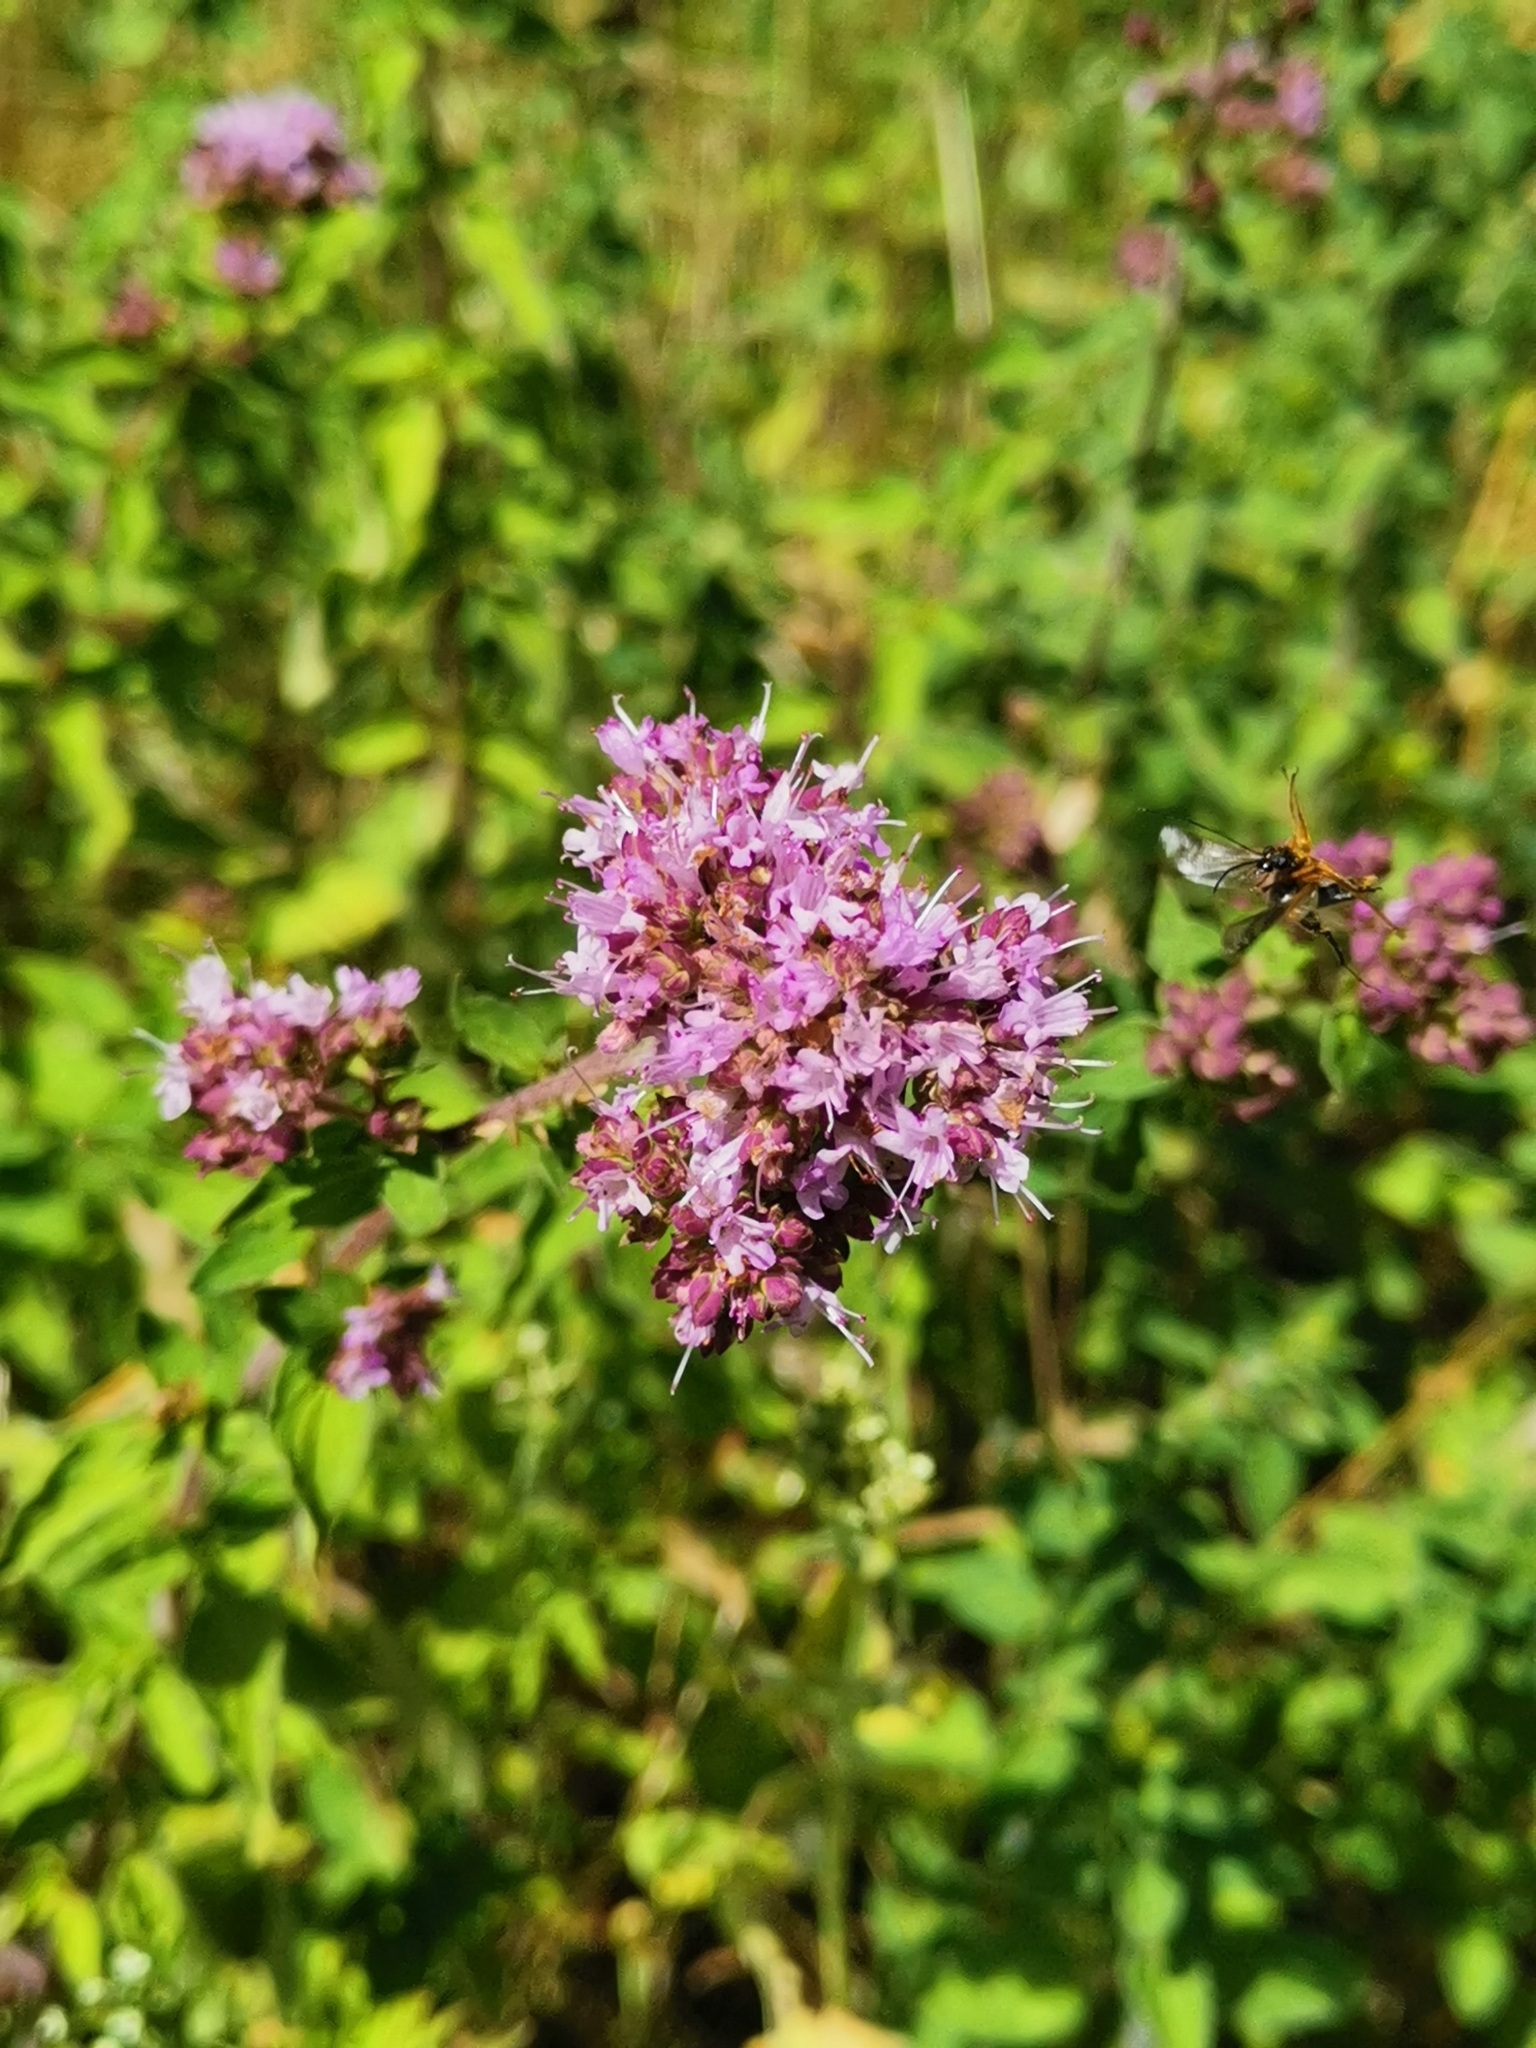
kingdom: Plantae
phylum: Tracheophyta
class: Magnoliopsida
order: Lamiales
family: Lamiaceae
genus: Origanum
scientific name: Origanum vulgare
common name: Wild marjoram
